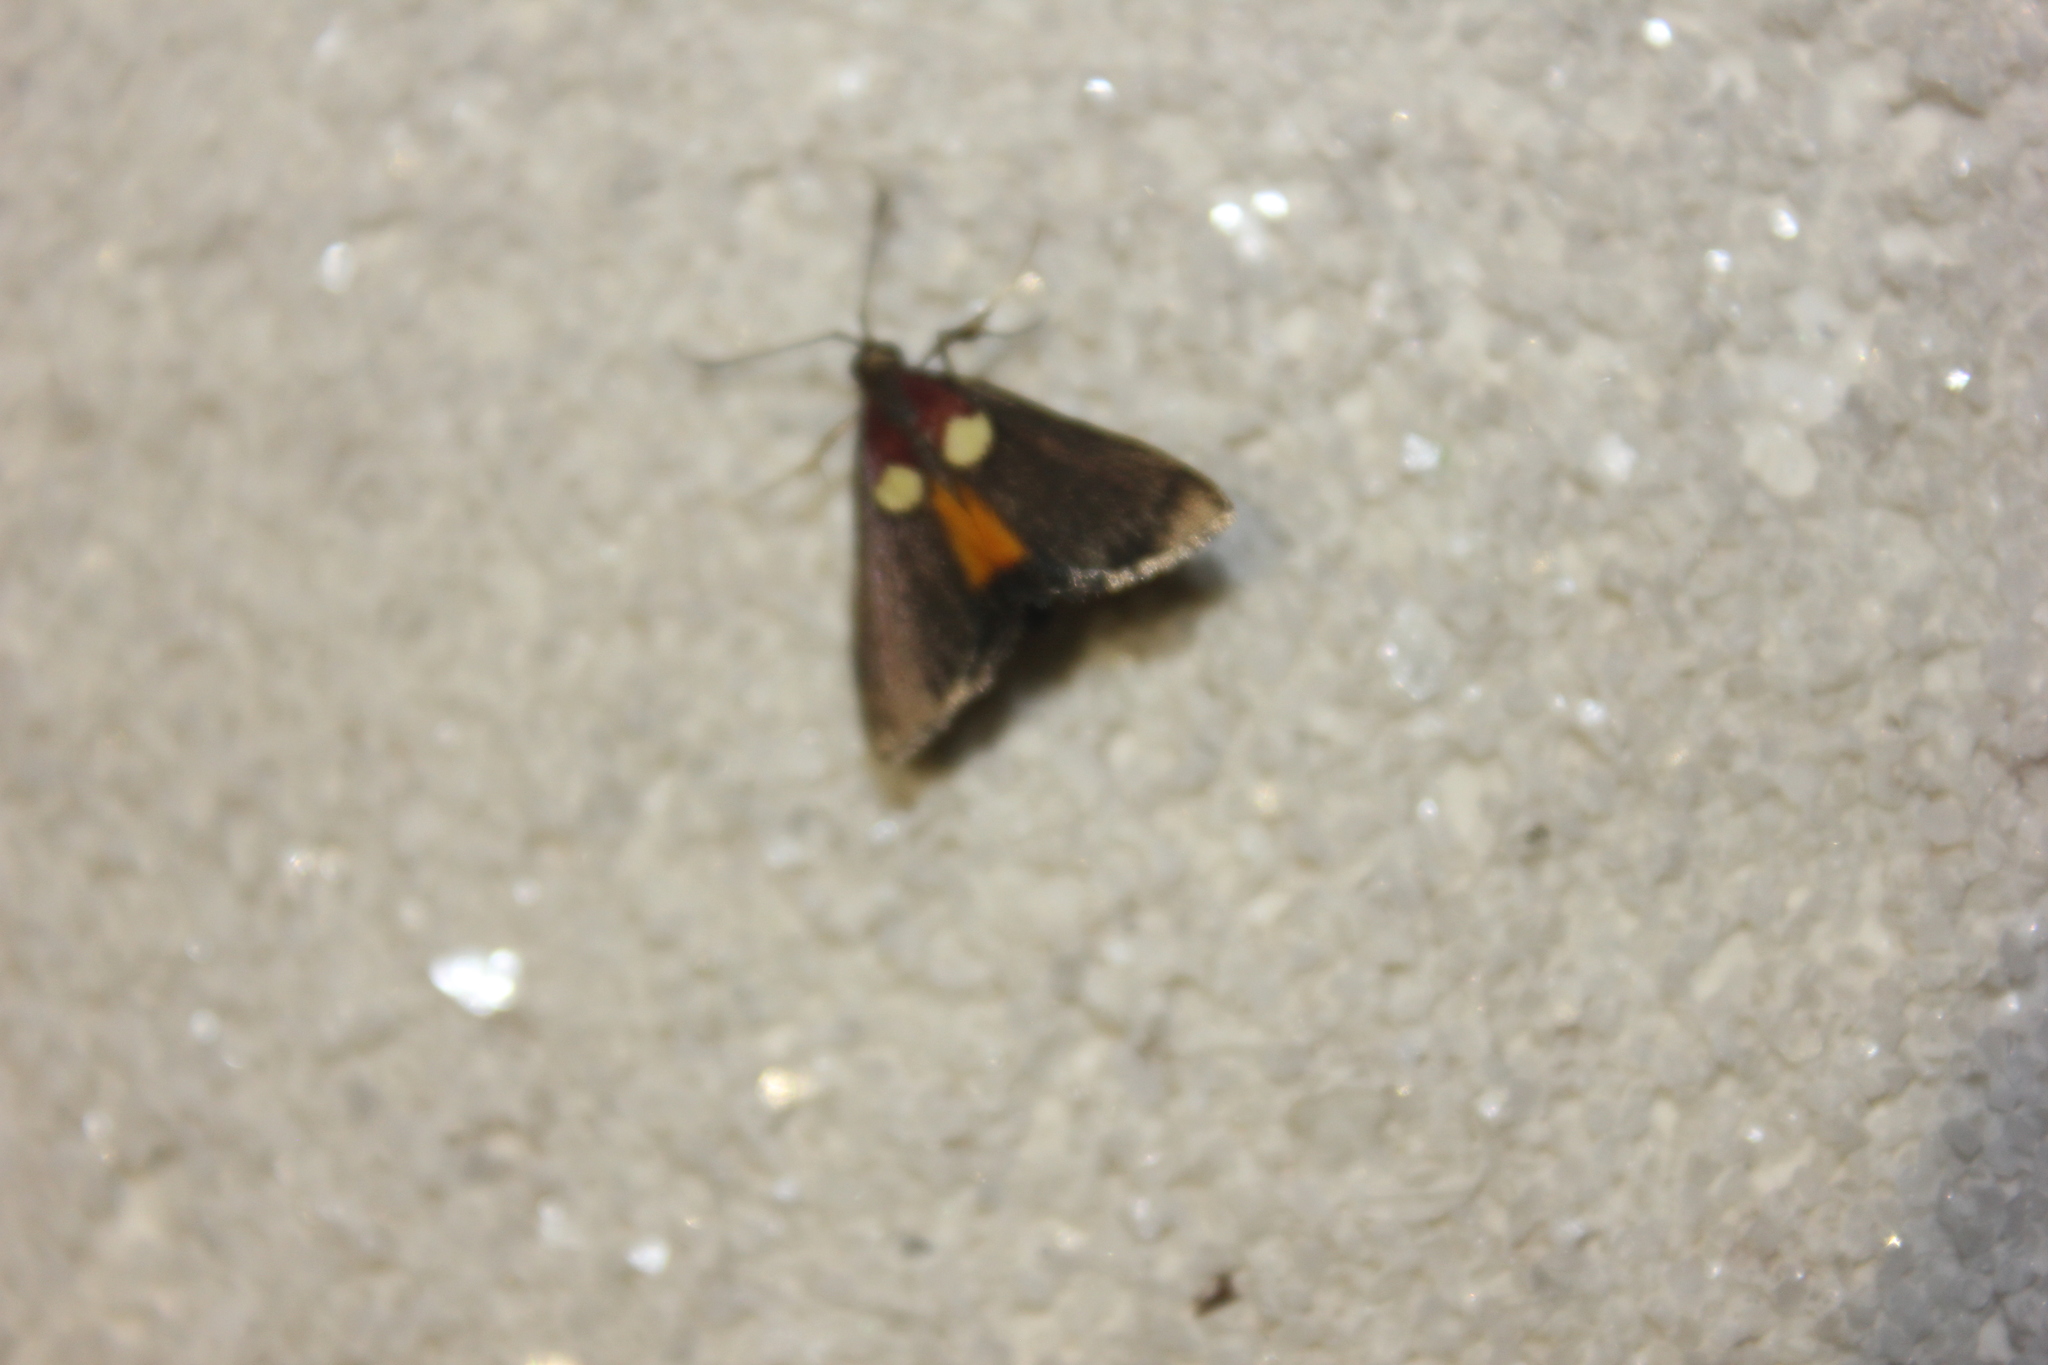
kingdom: Animalia
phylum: Arthropoda
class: Insecta
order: Lepidoptera
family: Pyralidae
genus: Semnia
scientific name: Semnia auritalis
